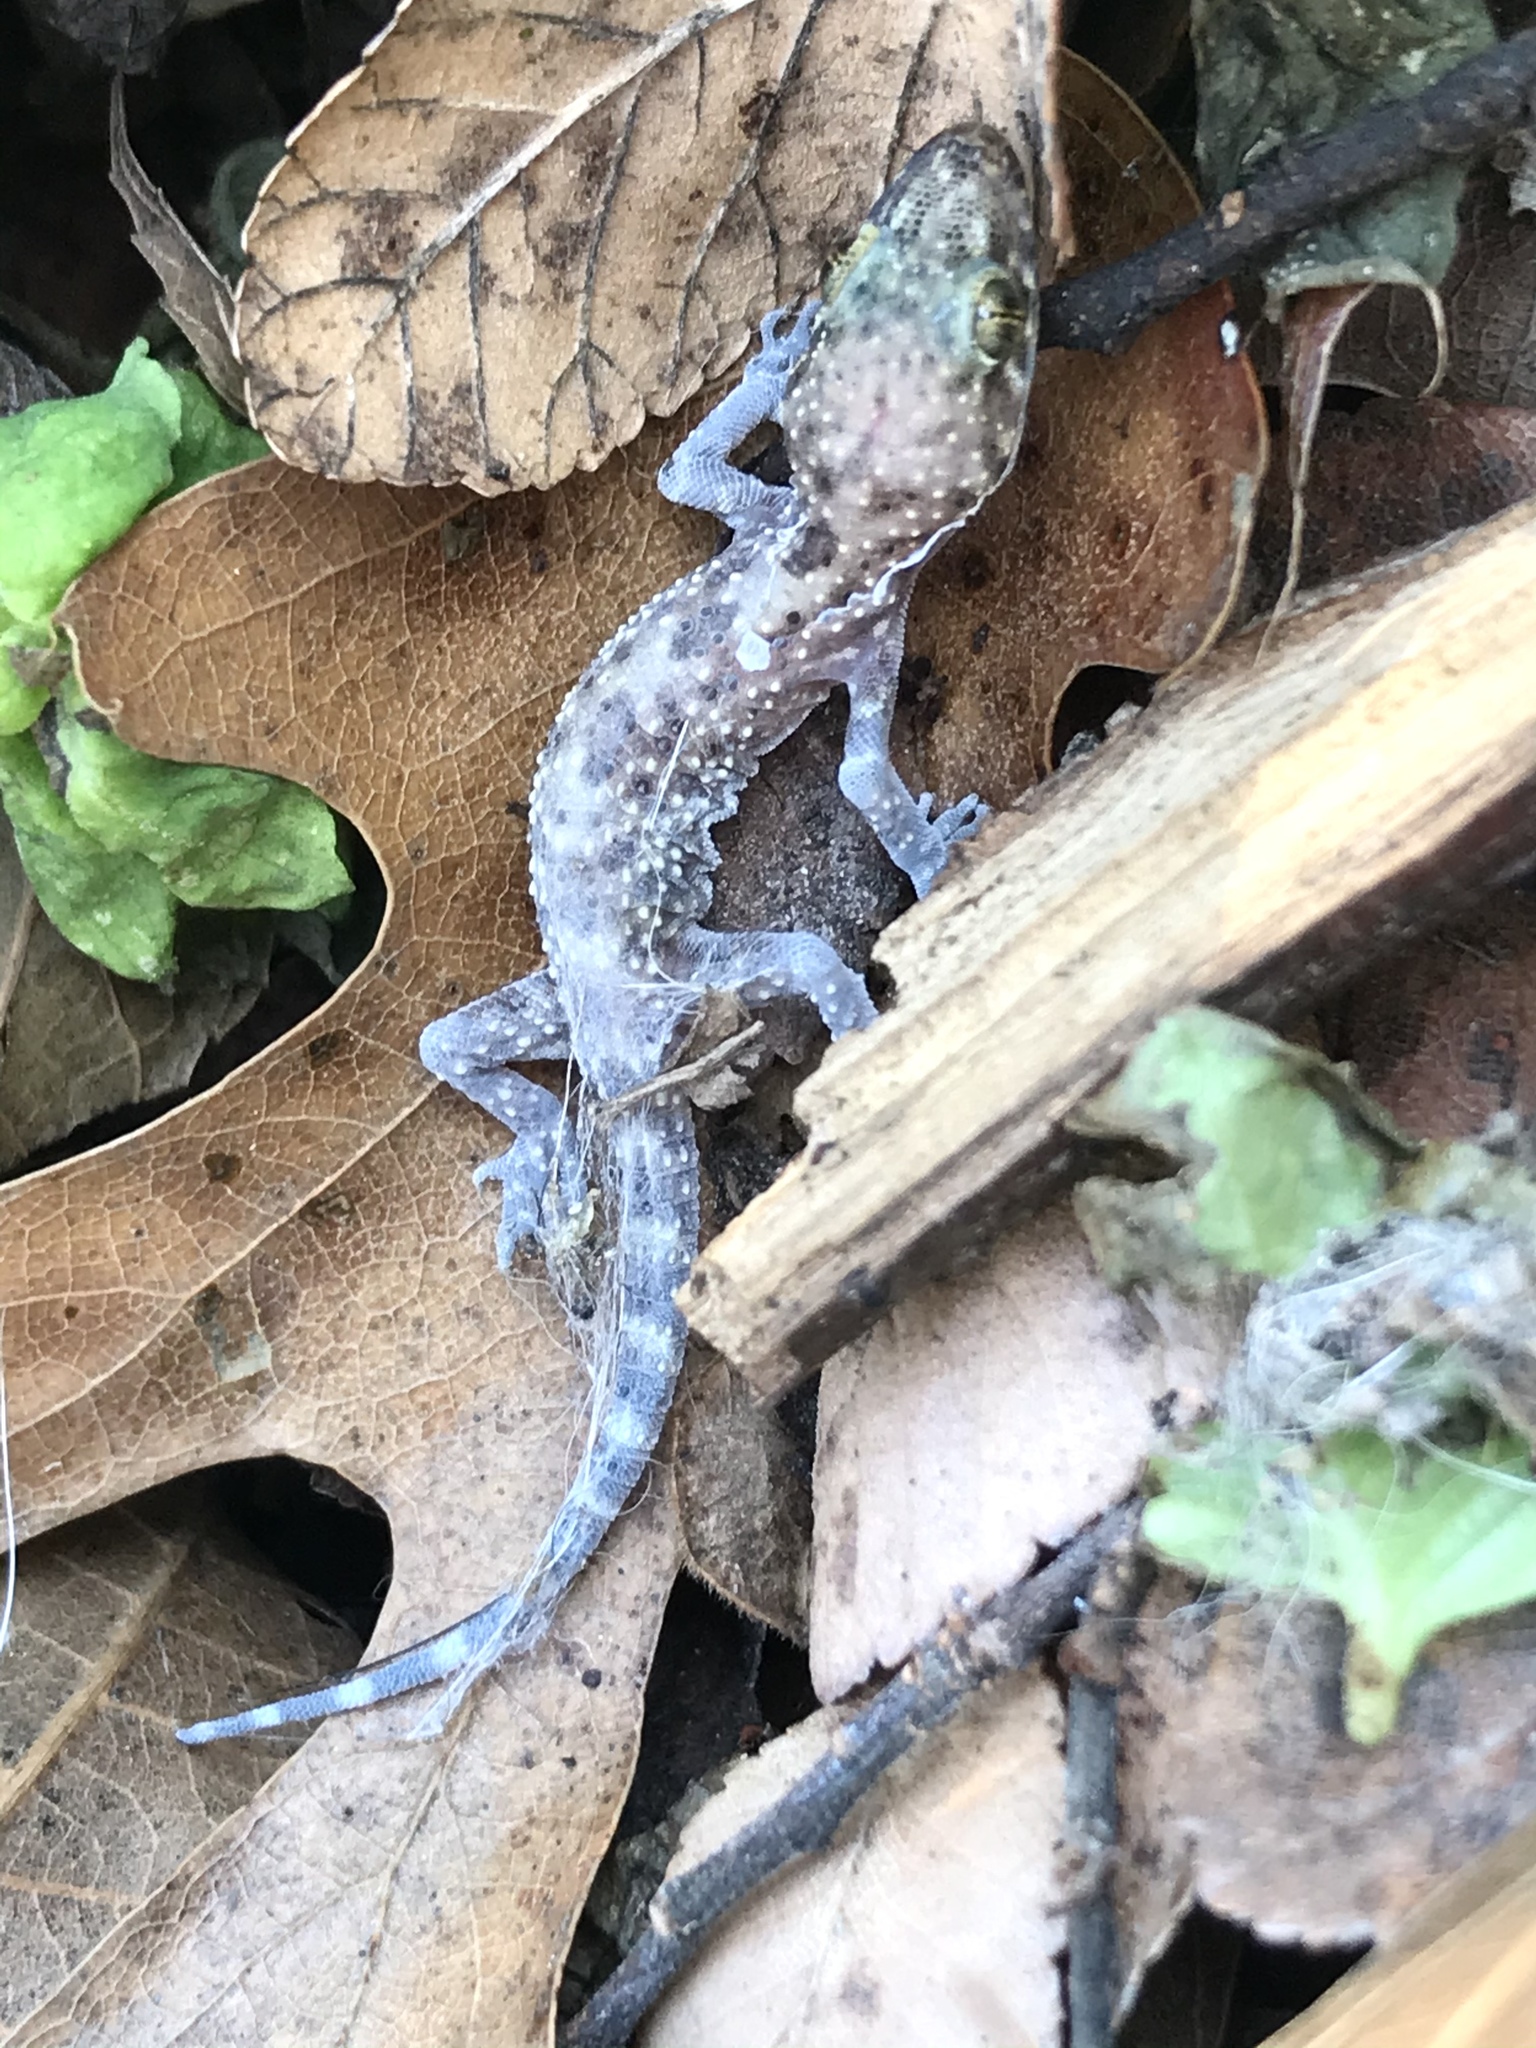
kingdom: Animalia
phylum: Chordata
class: Squamata
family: Gekkonidae
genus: Hemidactylus
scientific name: Hemidactylus turcicus
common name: Turkish gecko
